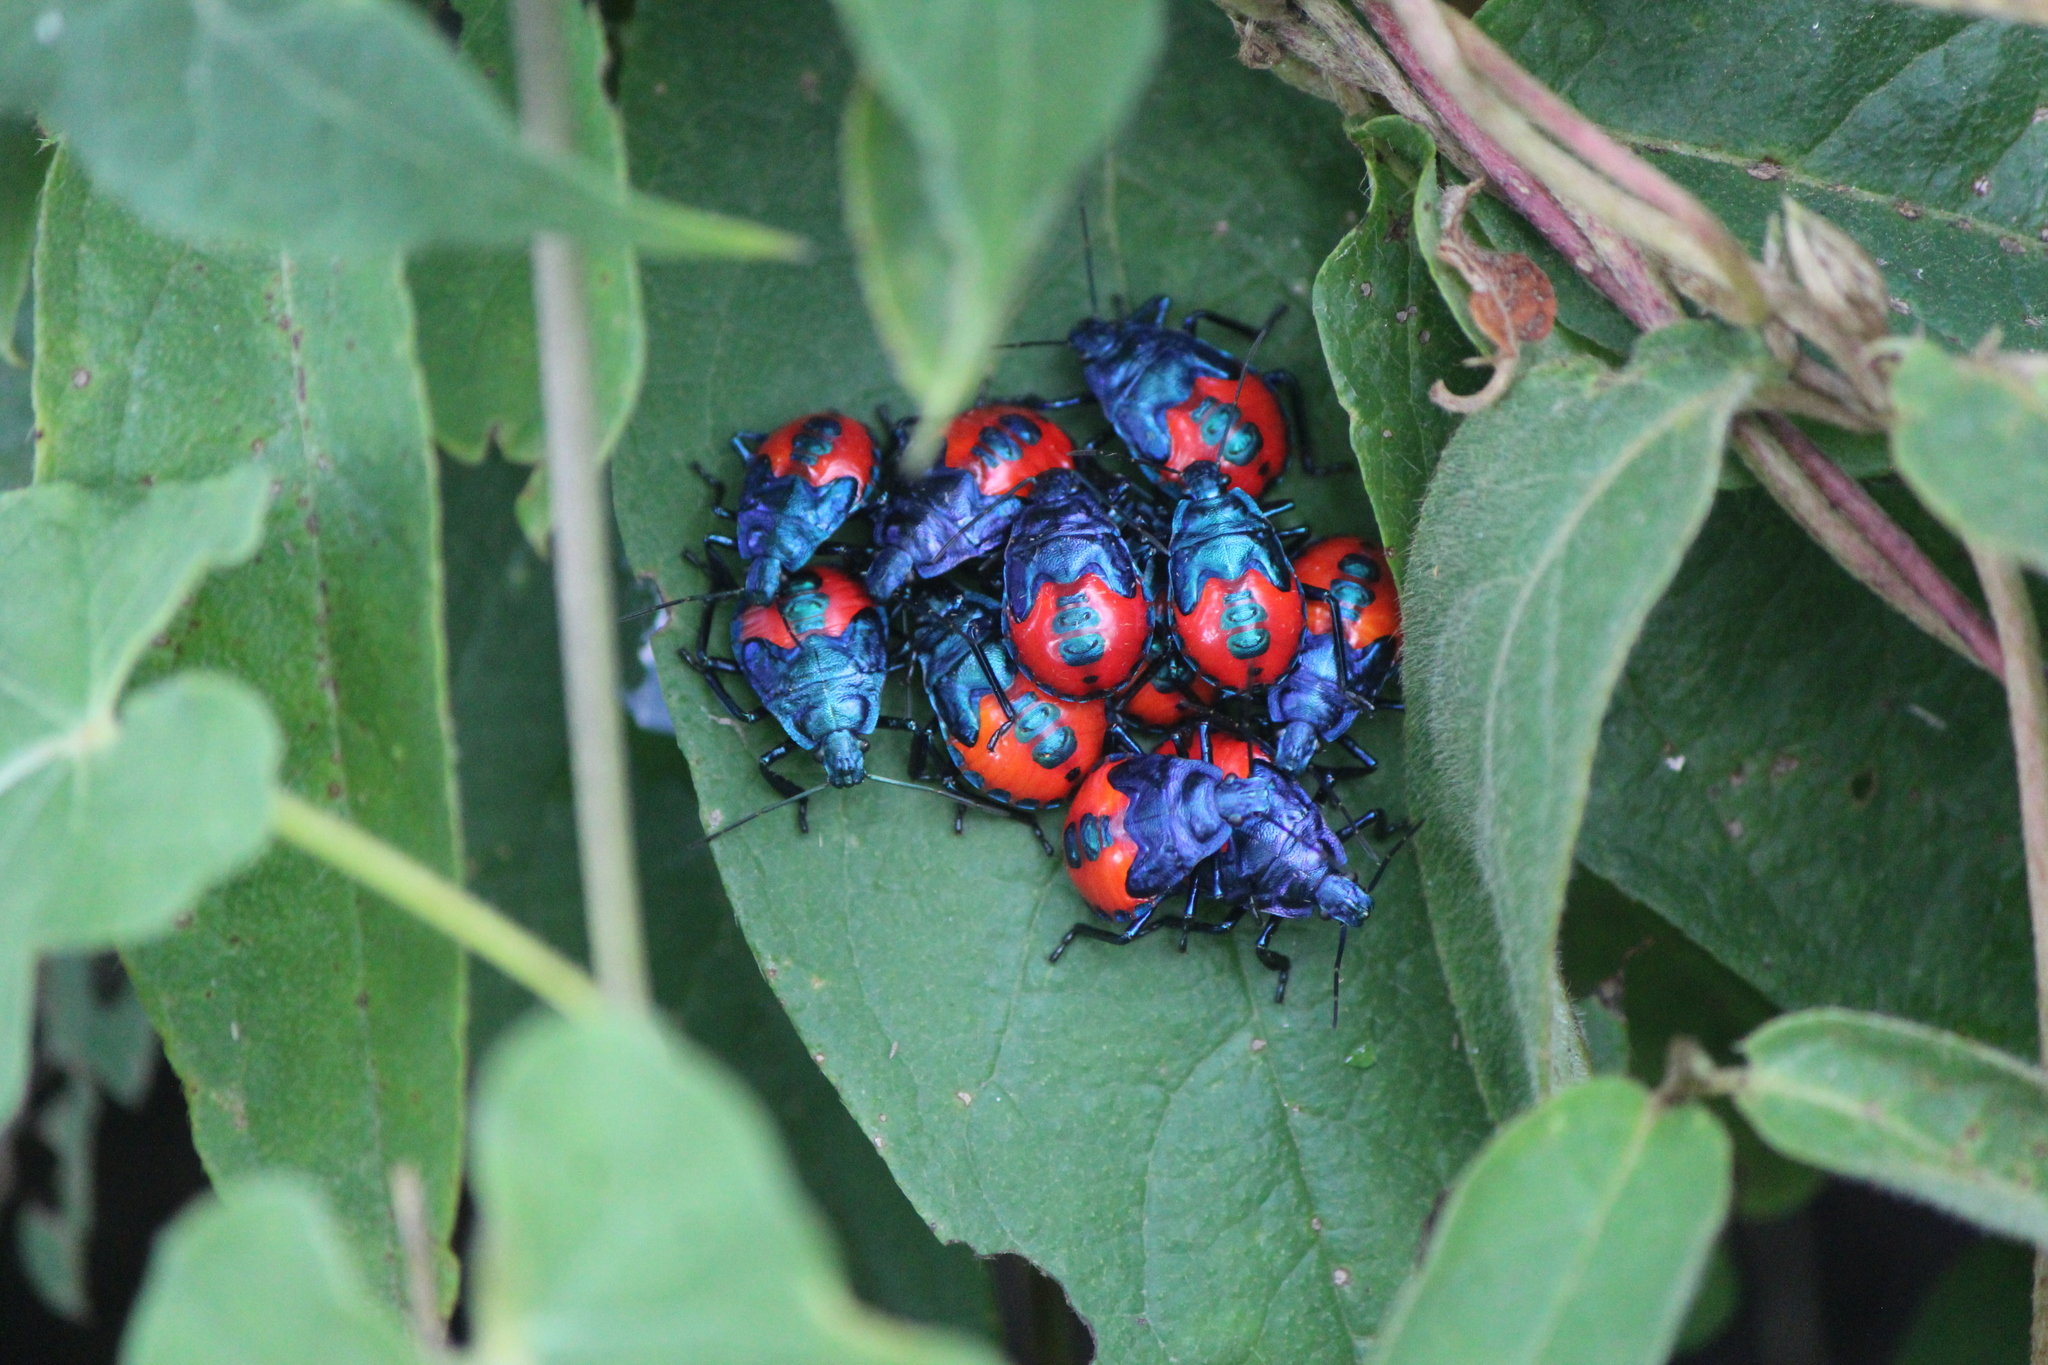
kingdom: Animalia
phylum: Arthropoda
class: Insecta
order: Hemiptera
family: Pentatomidae
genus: Euthyrhynchus
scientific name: Euthyrhynchus floridanus
